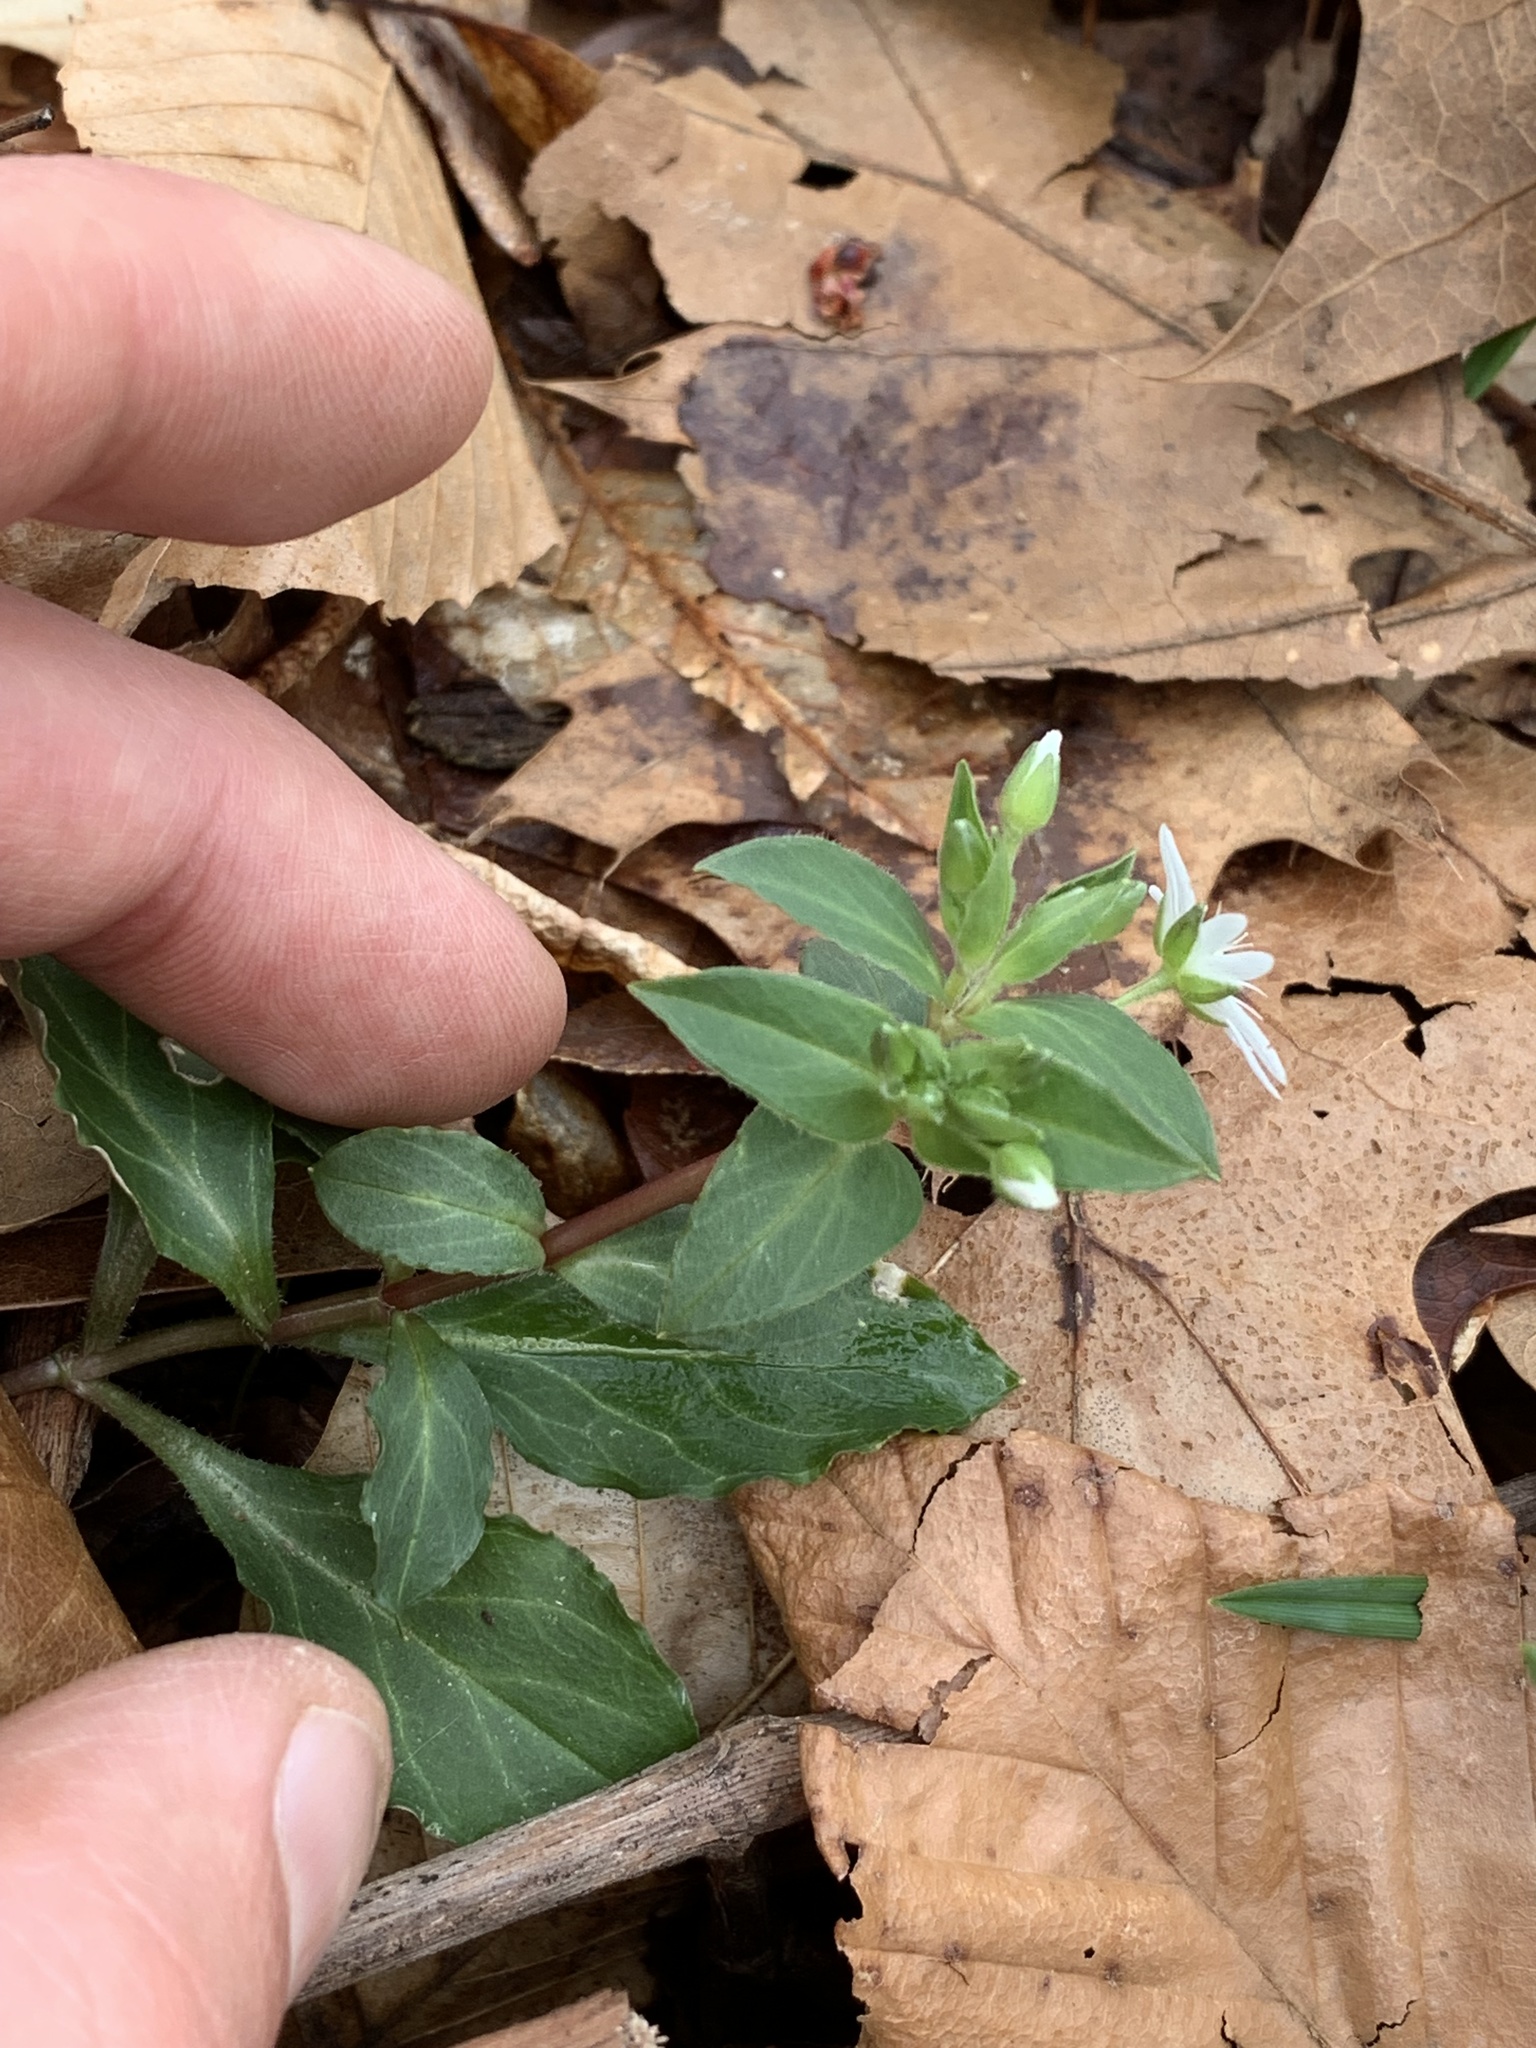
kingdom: Plantae
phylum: Tracheophyta
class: Magnoliopsida
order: Caryophyllales
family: Caryophyllaceae
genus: Stellaria
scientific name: Stellaria pubera
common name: Star chickweed
